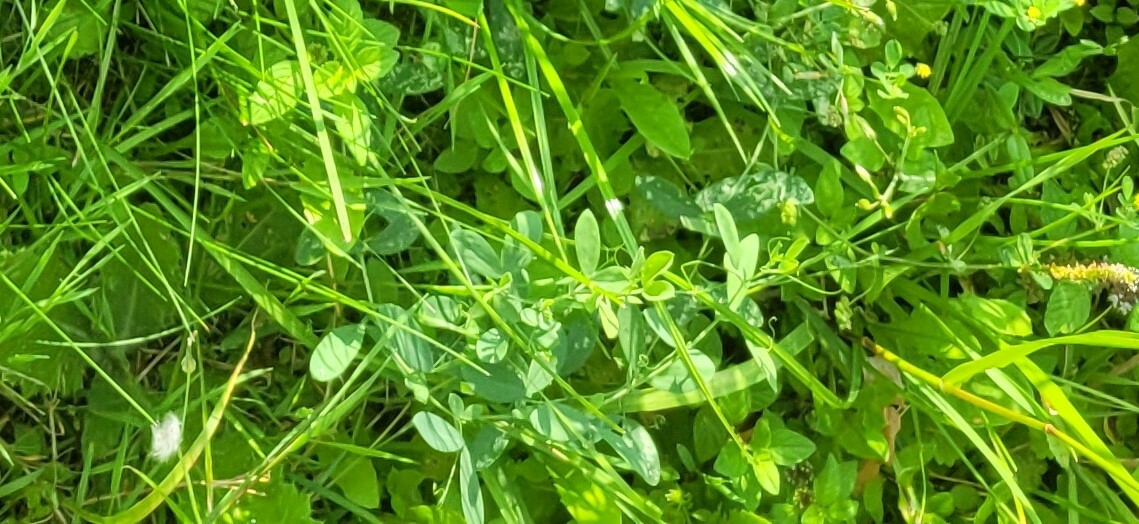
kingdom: Plantae
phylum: Tracheophyta
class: Magnoliopsida
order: Fabales
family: Fabaceae
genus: Lathyrus
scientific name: Lathyrus tuberosus
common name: Tuberous pea
